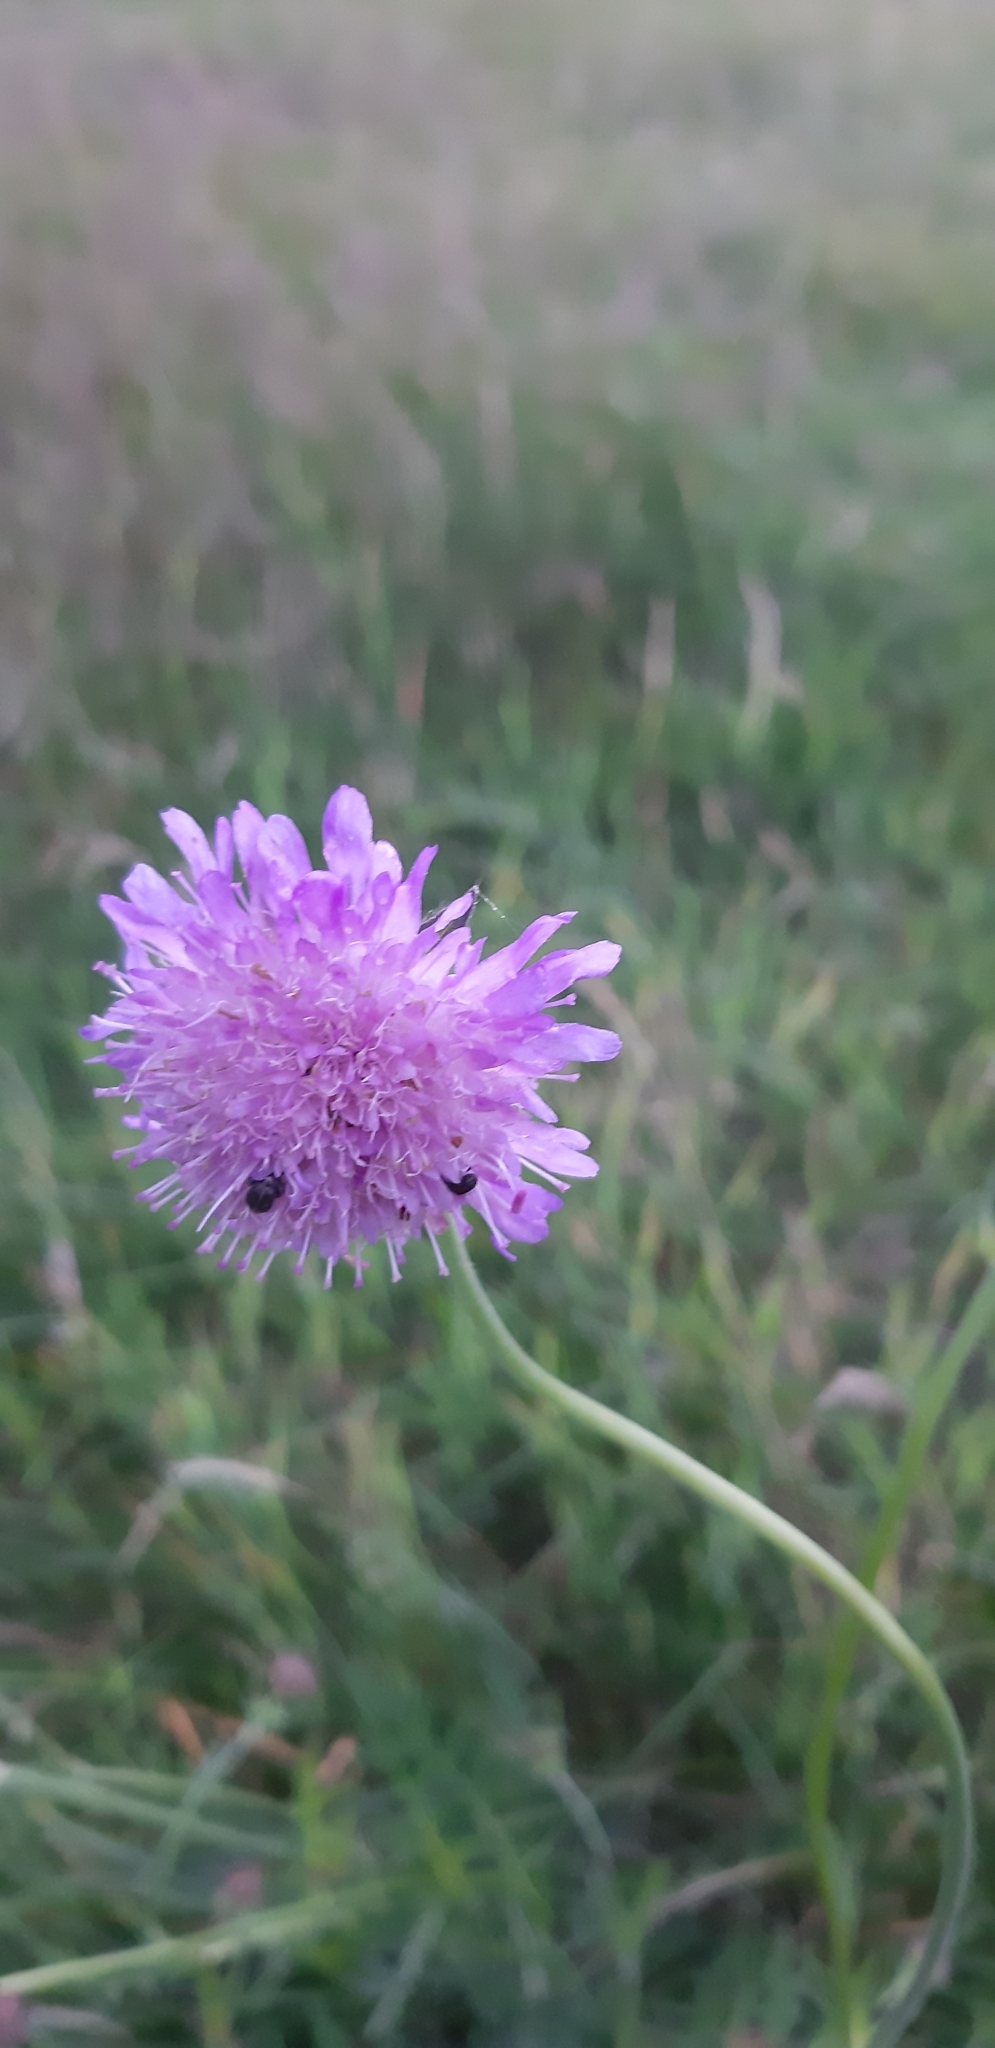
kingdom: Plantae
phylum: Tracheophyta
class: Magnoliopsida
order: Dipsacales
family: Caprifoliaceae
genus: Knautia
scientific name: Knautia arvensis
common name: Field scabiosa
